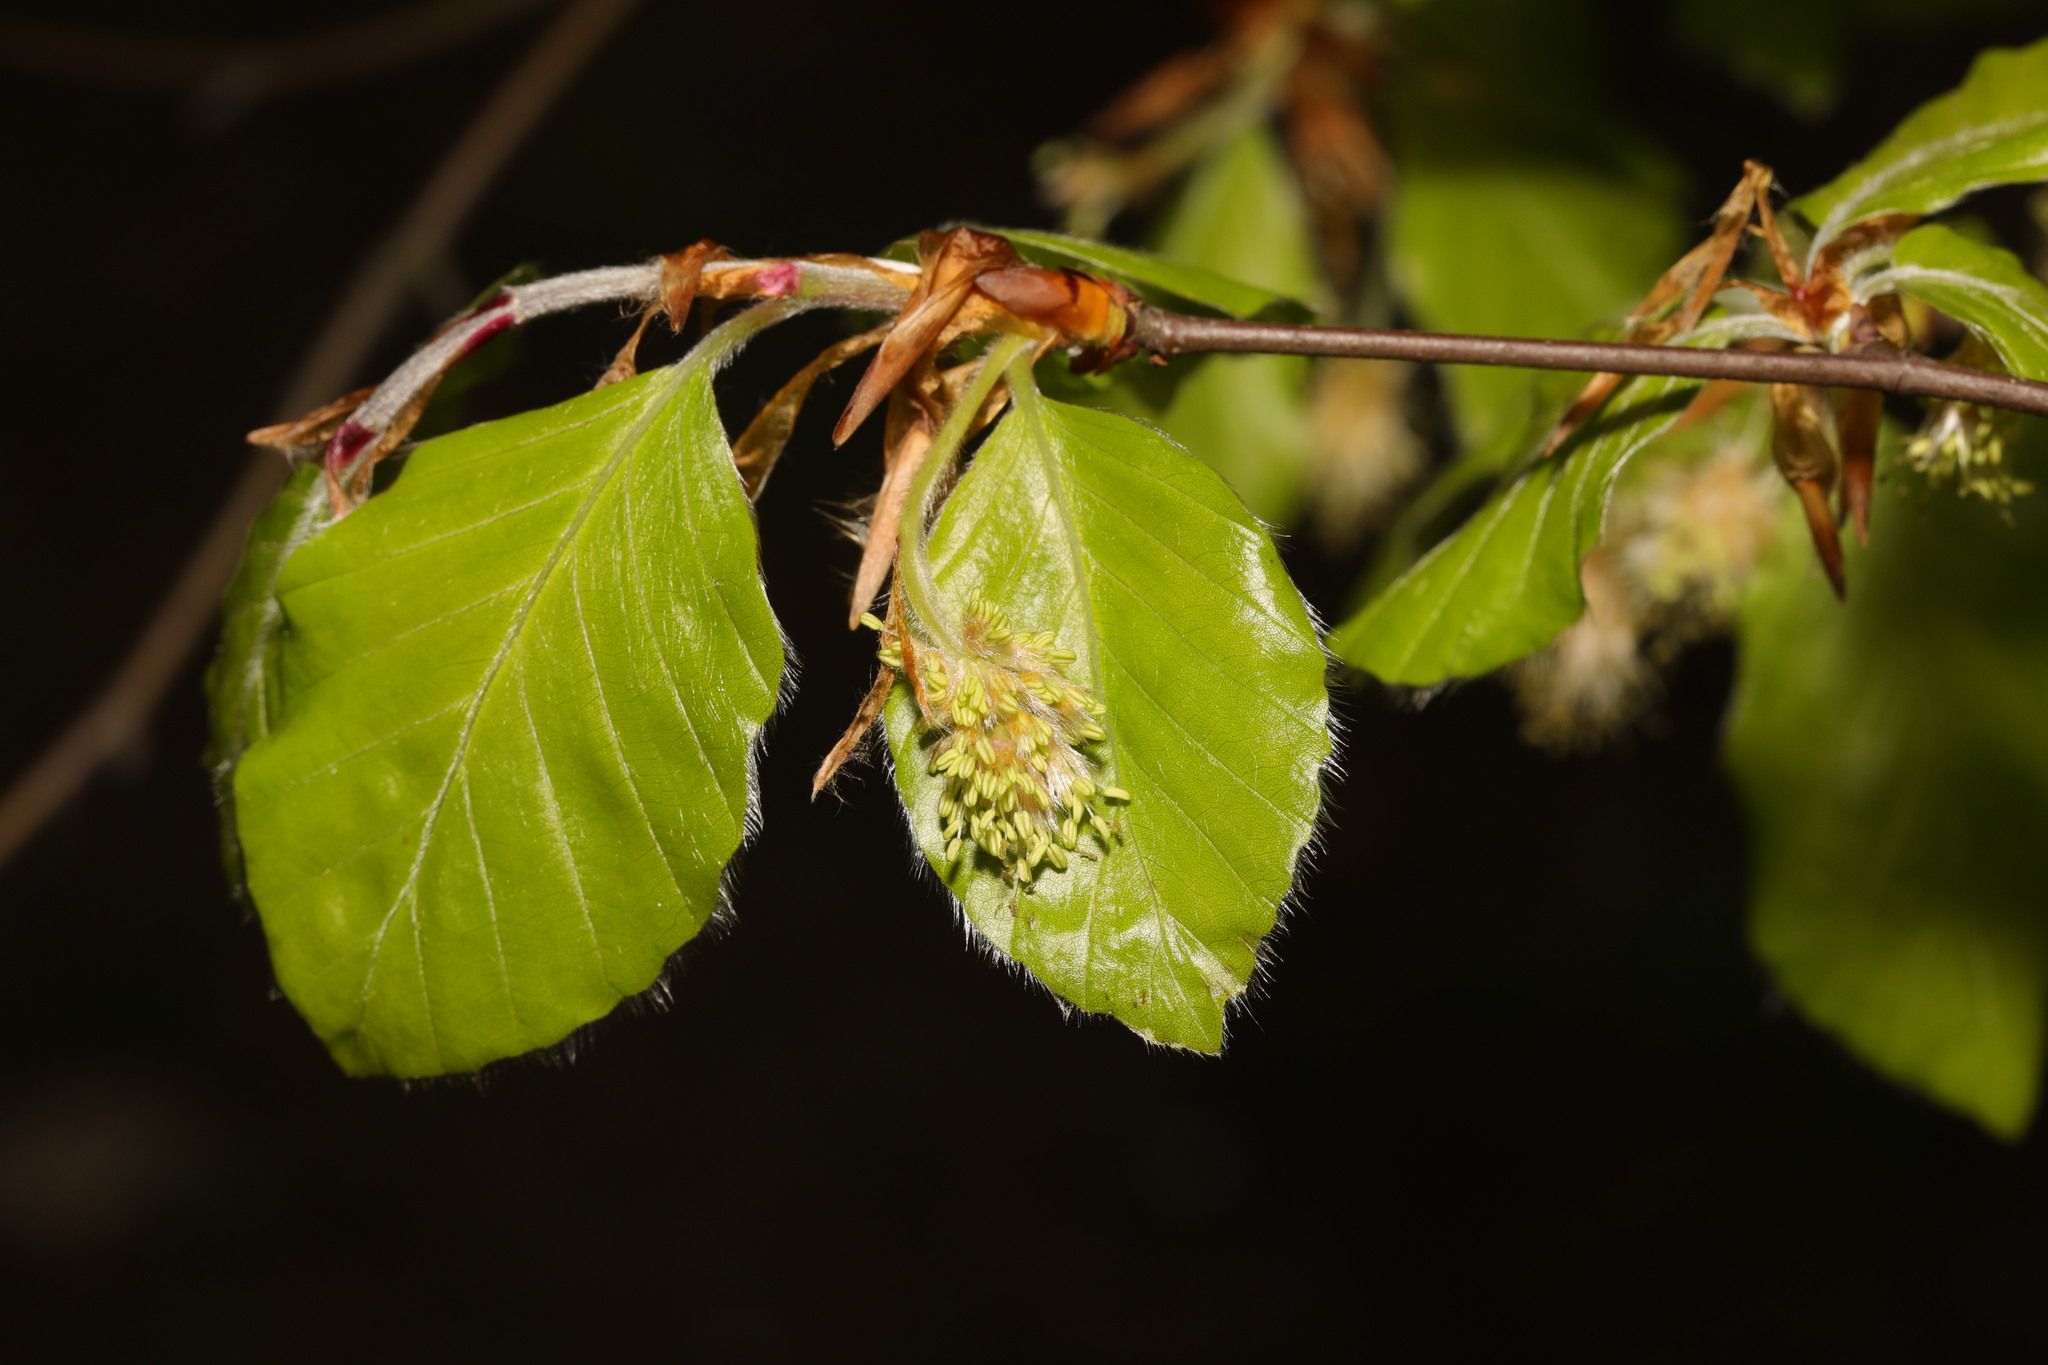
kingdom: Plantae
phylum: Tracheophyta
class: Magnoliopsida
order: Fagales
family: Fagaceae
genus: Fagus
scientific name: Fagus sylvatica
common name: Beech
